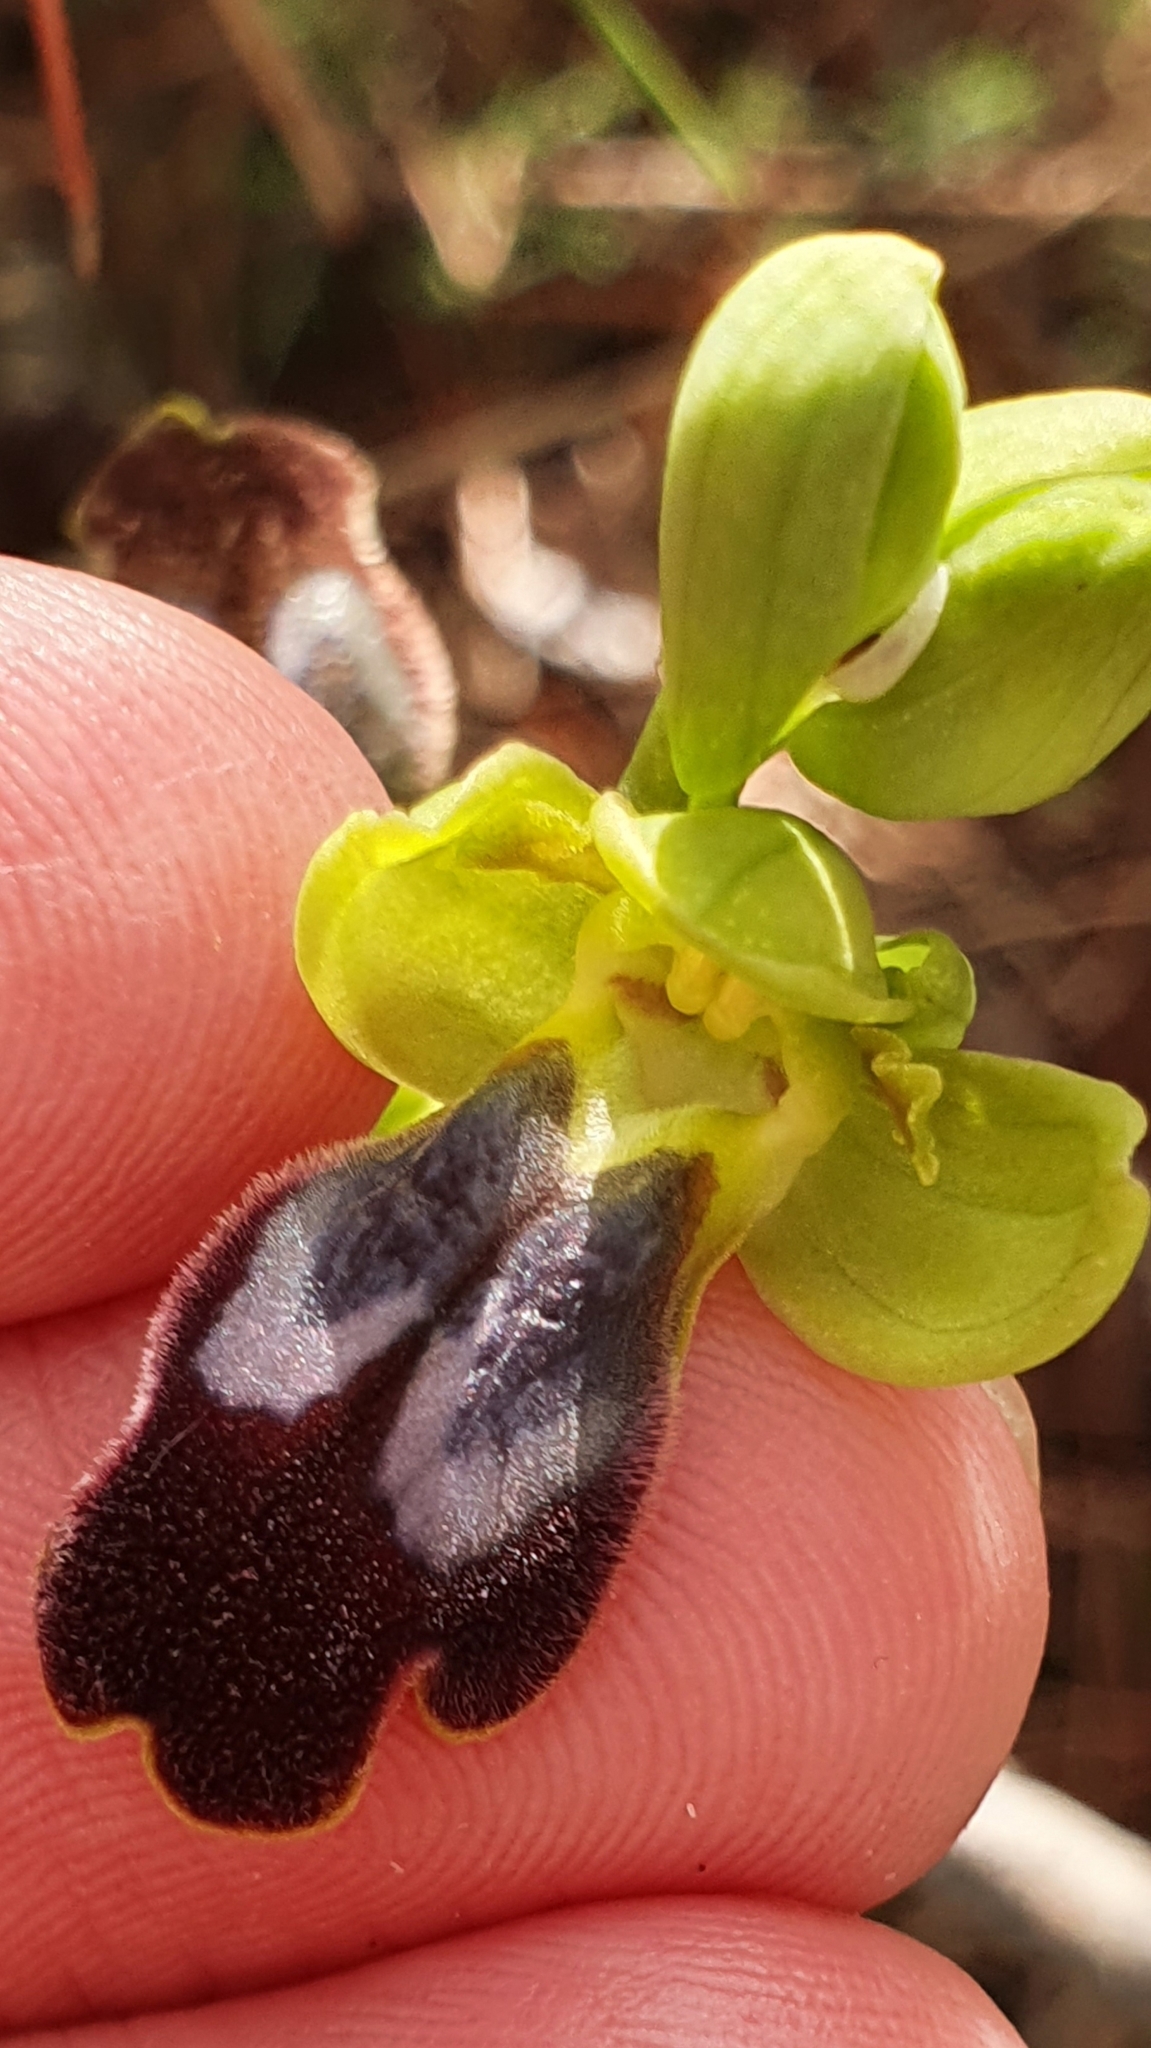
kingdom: Plantae
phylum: Tracheophyta
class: Liliopsida
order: Asparagales
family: Orchidaceae
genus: Ophrys
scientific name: Ophrys fusca
